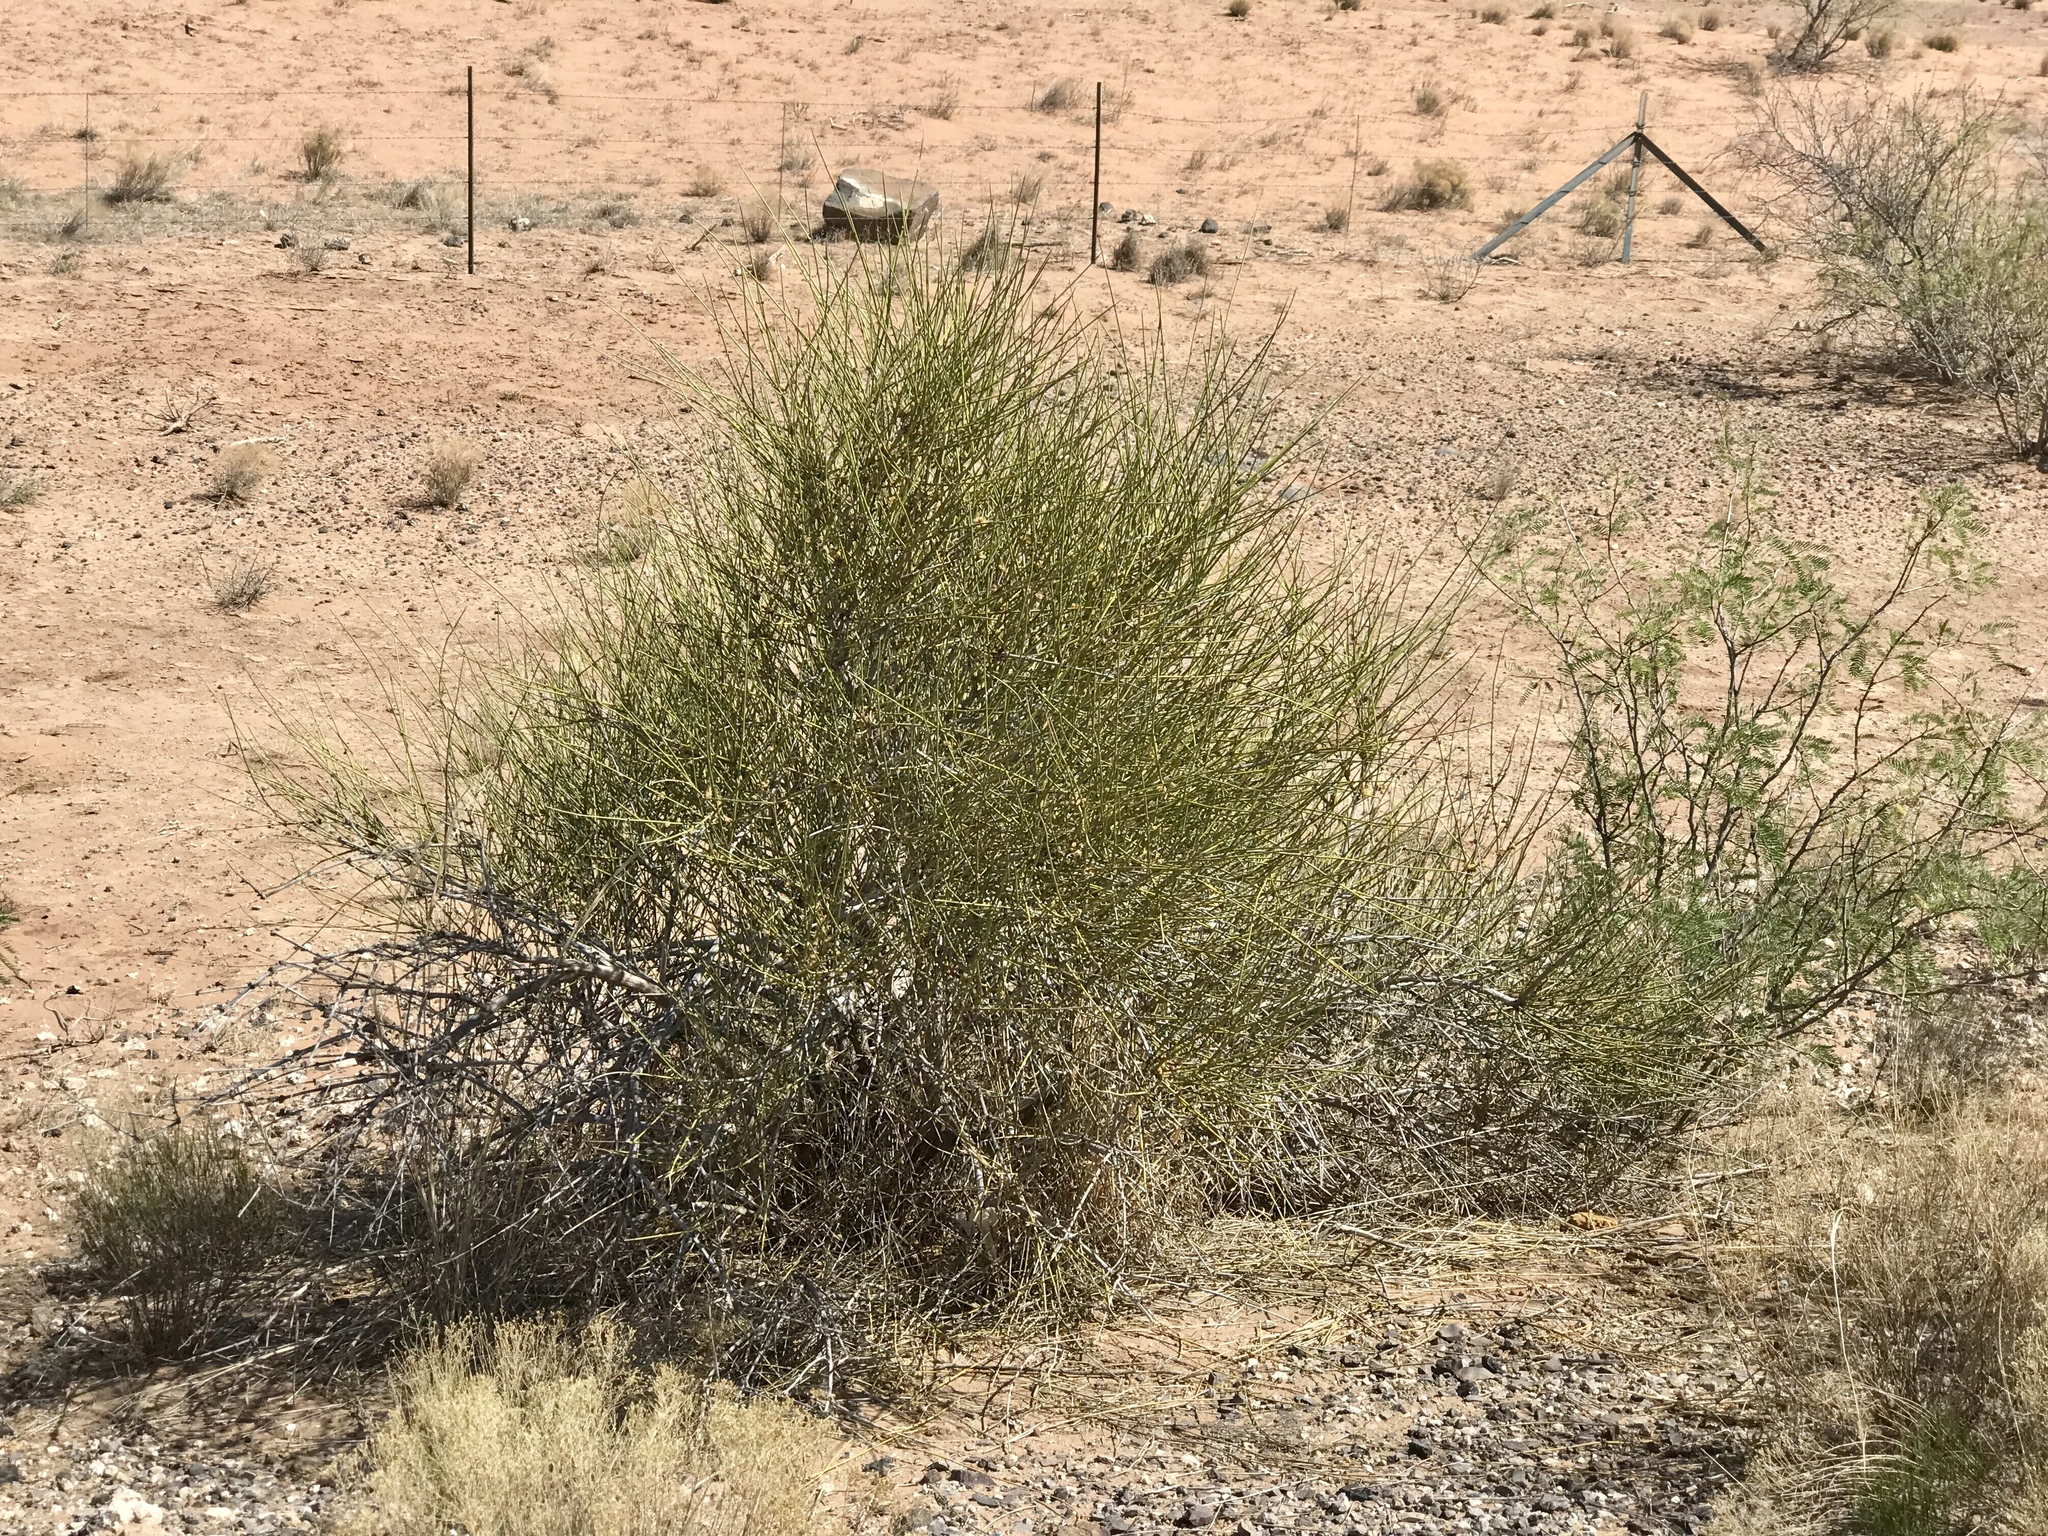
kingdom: Plantae
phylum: Tracheophyta
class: Gnetopsida
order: Ephedrales
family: Ephedraceae
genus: Ephedra
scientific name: Ephedra trifurca
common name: Mexican-tea
